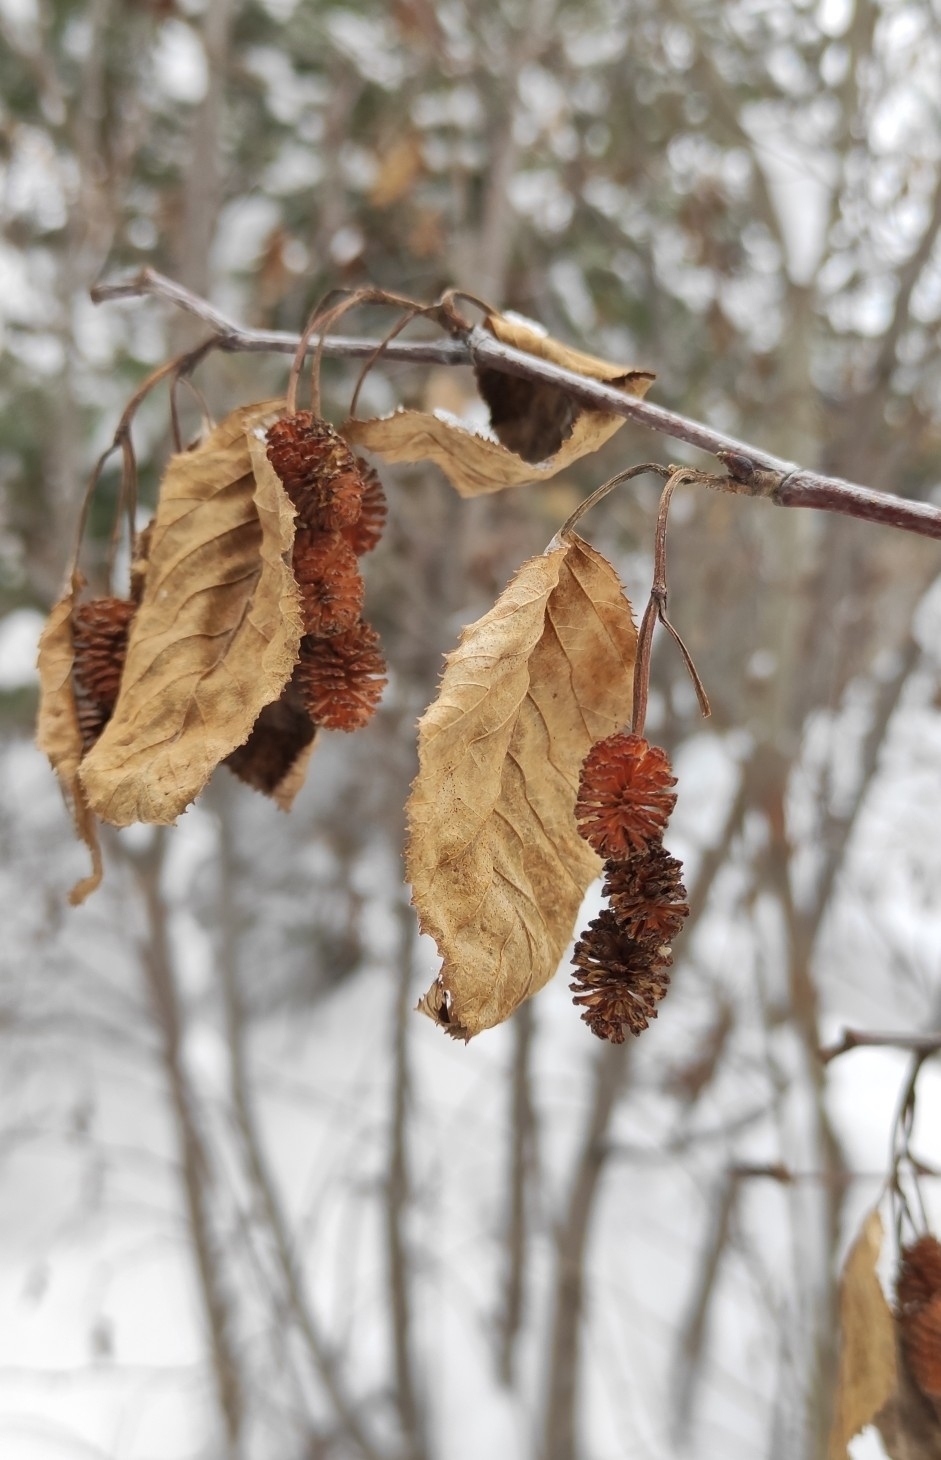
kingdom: Plantae
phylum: Tracheophyta
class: Magnoliopsida
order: Fagales
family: Betulaceae
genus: Alnus
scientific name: Alnus alnobetula
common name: Green alder
